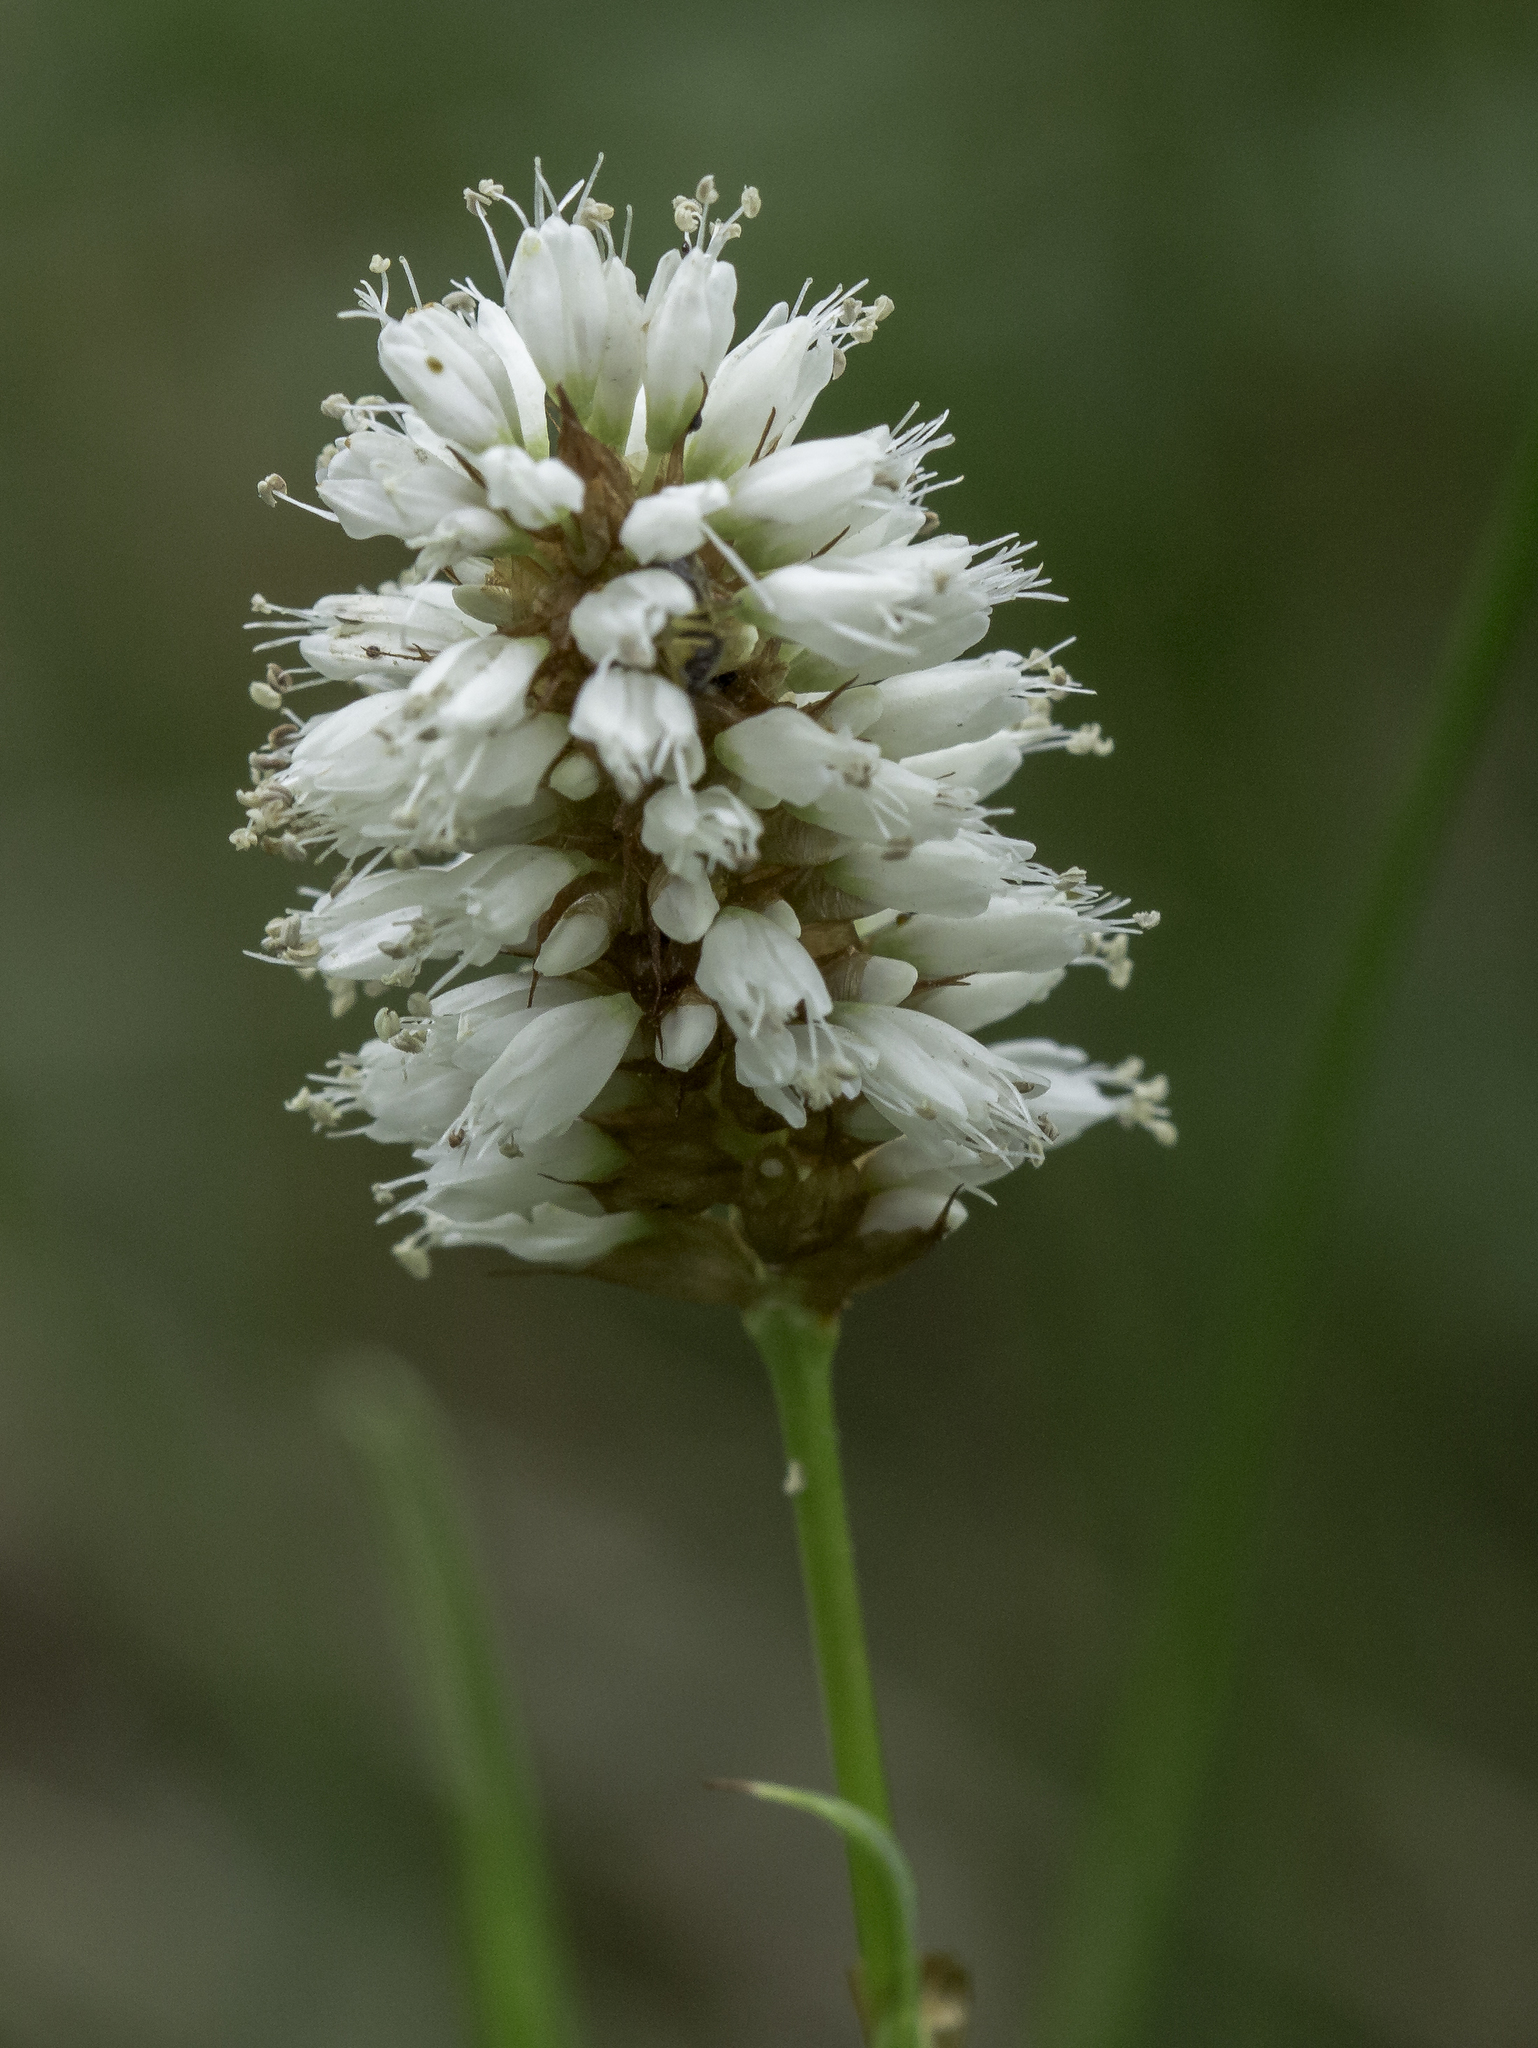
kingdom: Plantae
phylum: Tracheophyta
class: Magnoliopsida
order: Caryophyllales
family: Polygonaceae
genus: Bistorta
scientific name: Bistorta bistortoides
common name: American bistort
